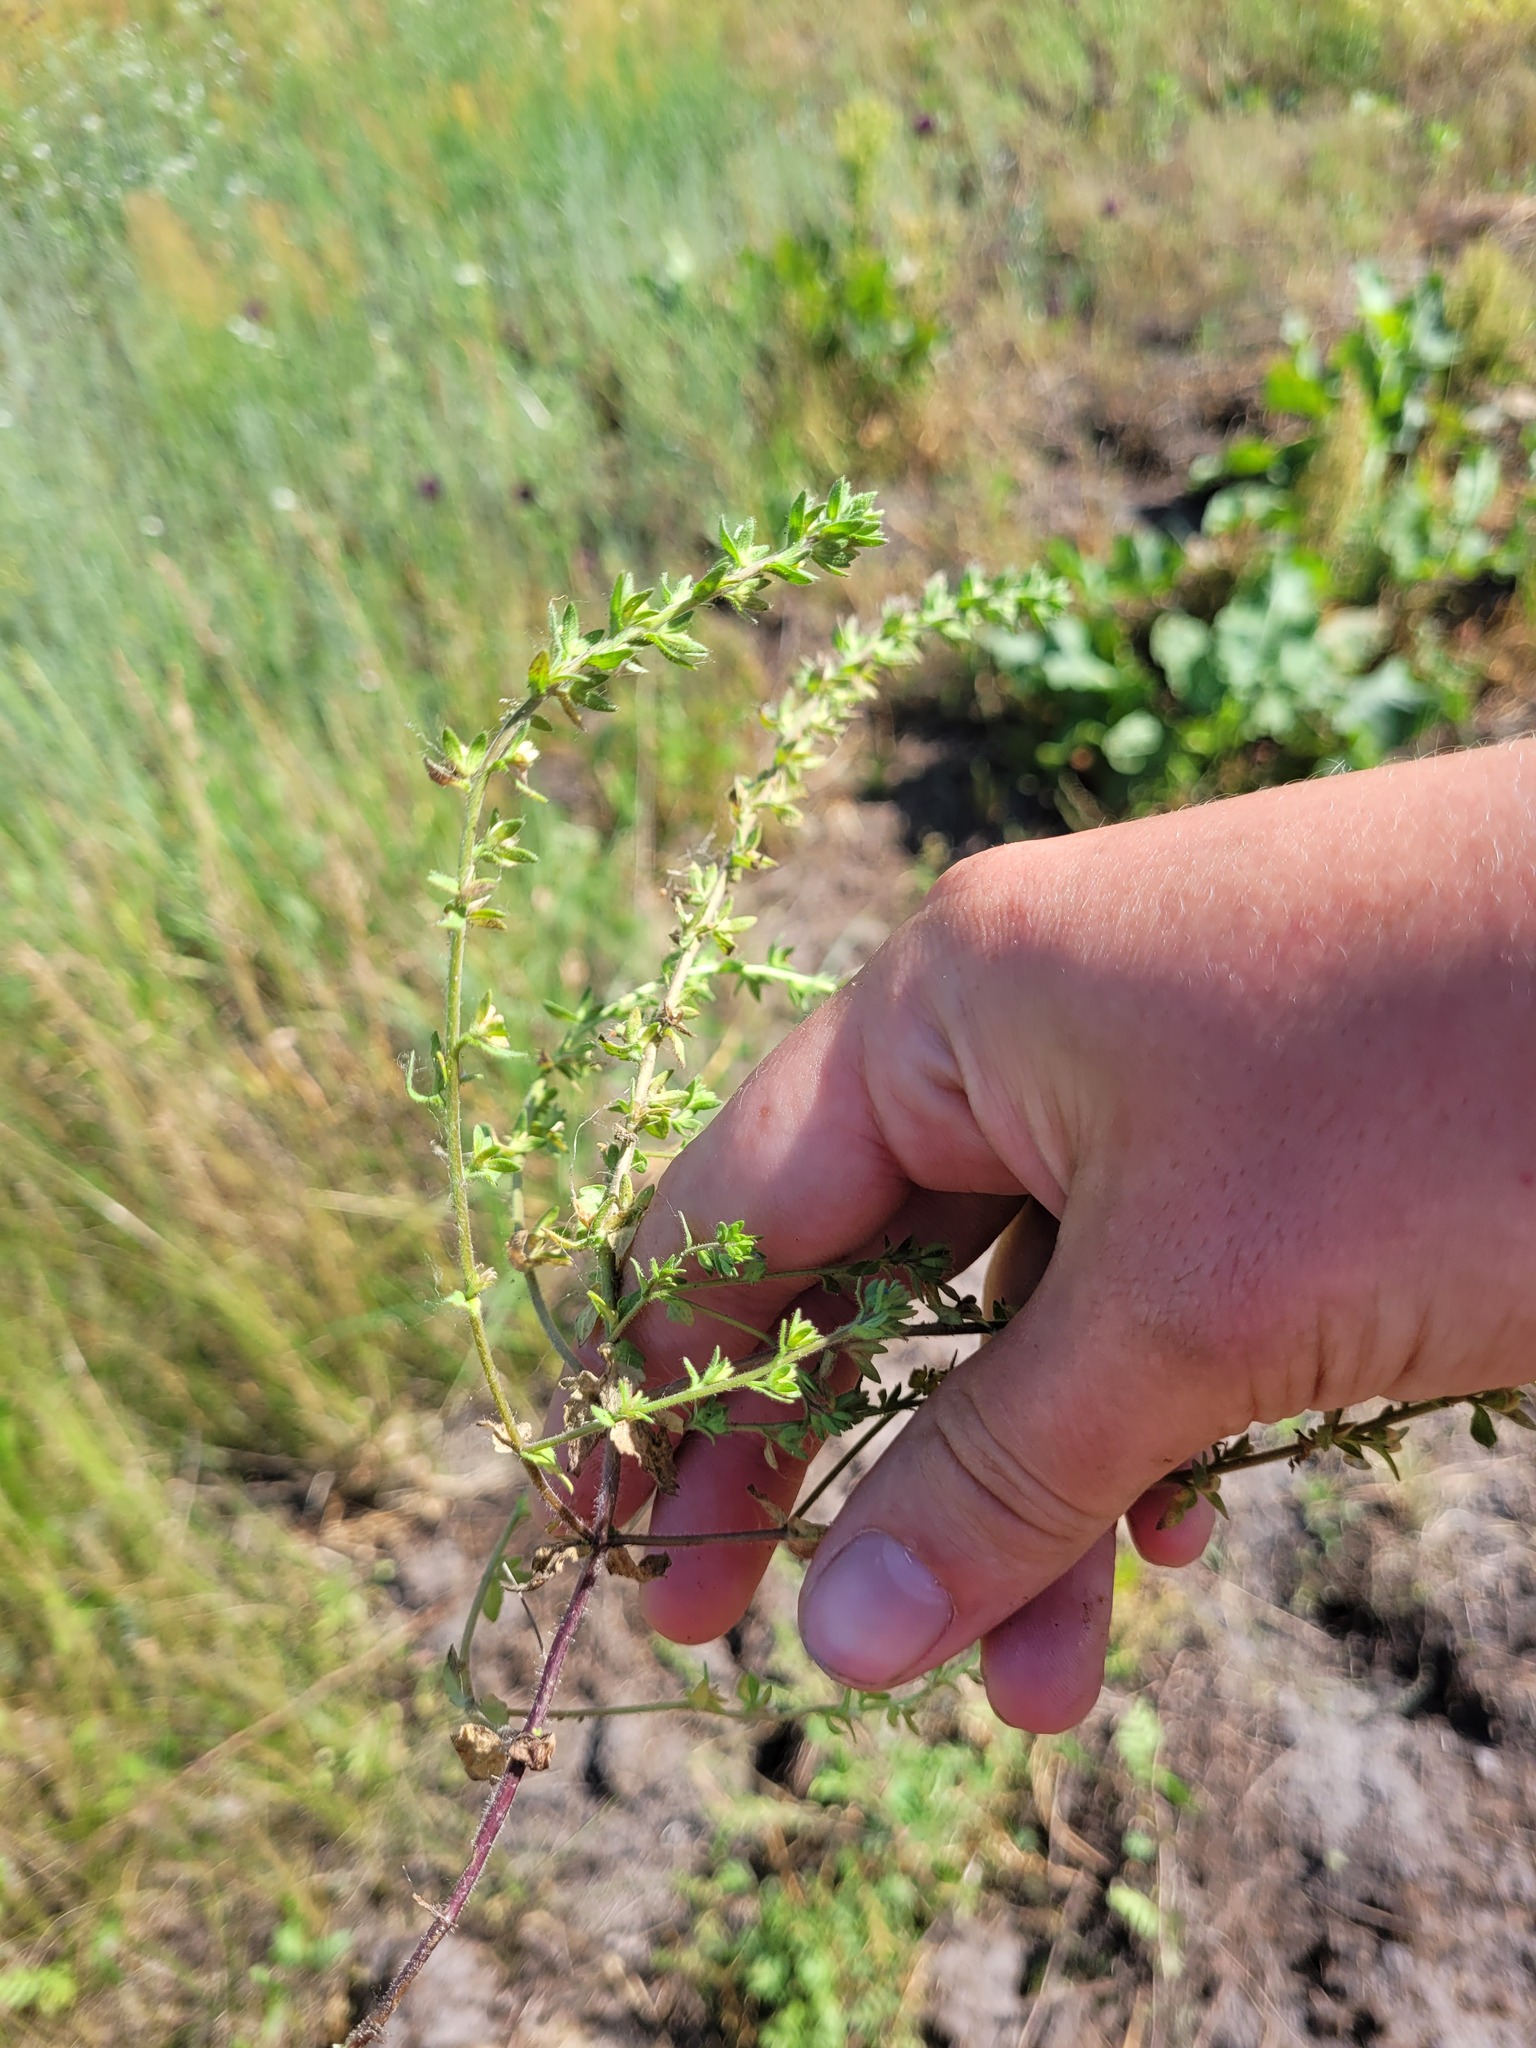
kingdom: Plantae
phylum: Tracheophyta
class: Magnoliopsida
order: Lamiales
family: Plantaginaceae
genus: Veronica
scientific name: Veronica arvensis
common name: Corn speedwell
